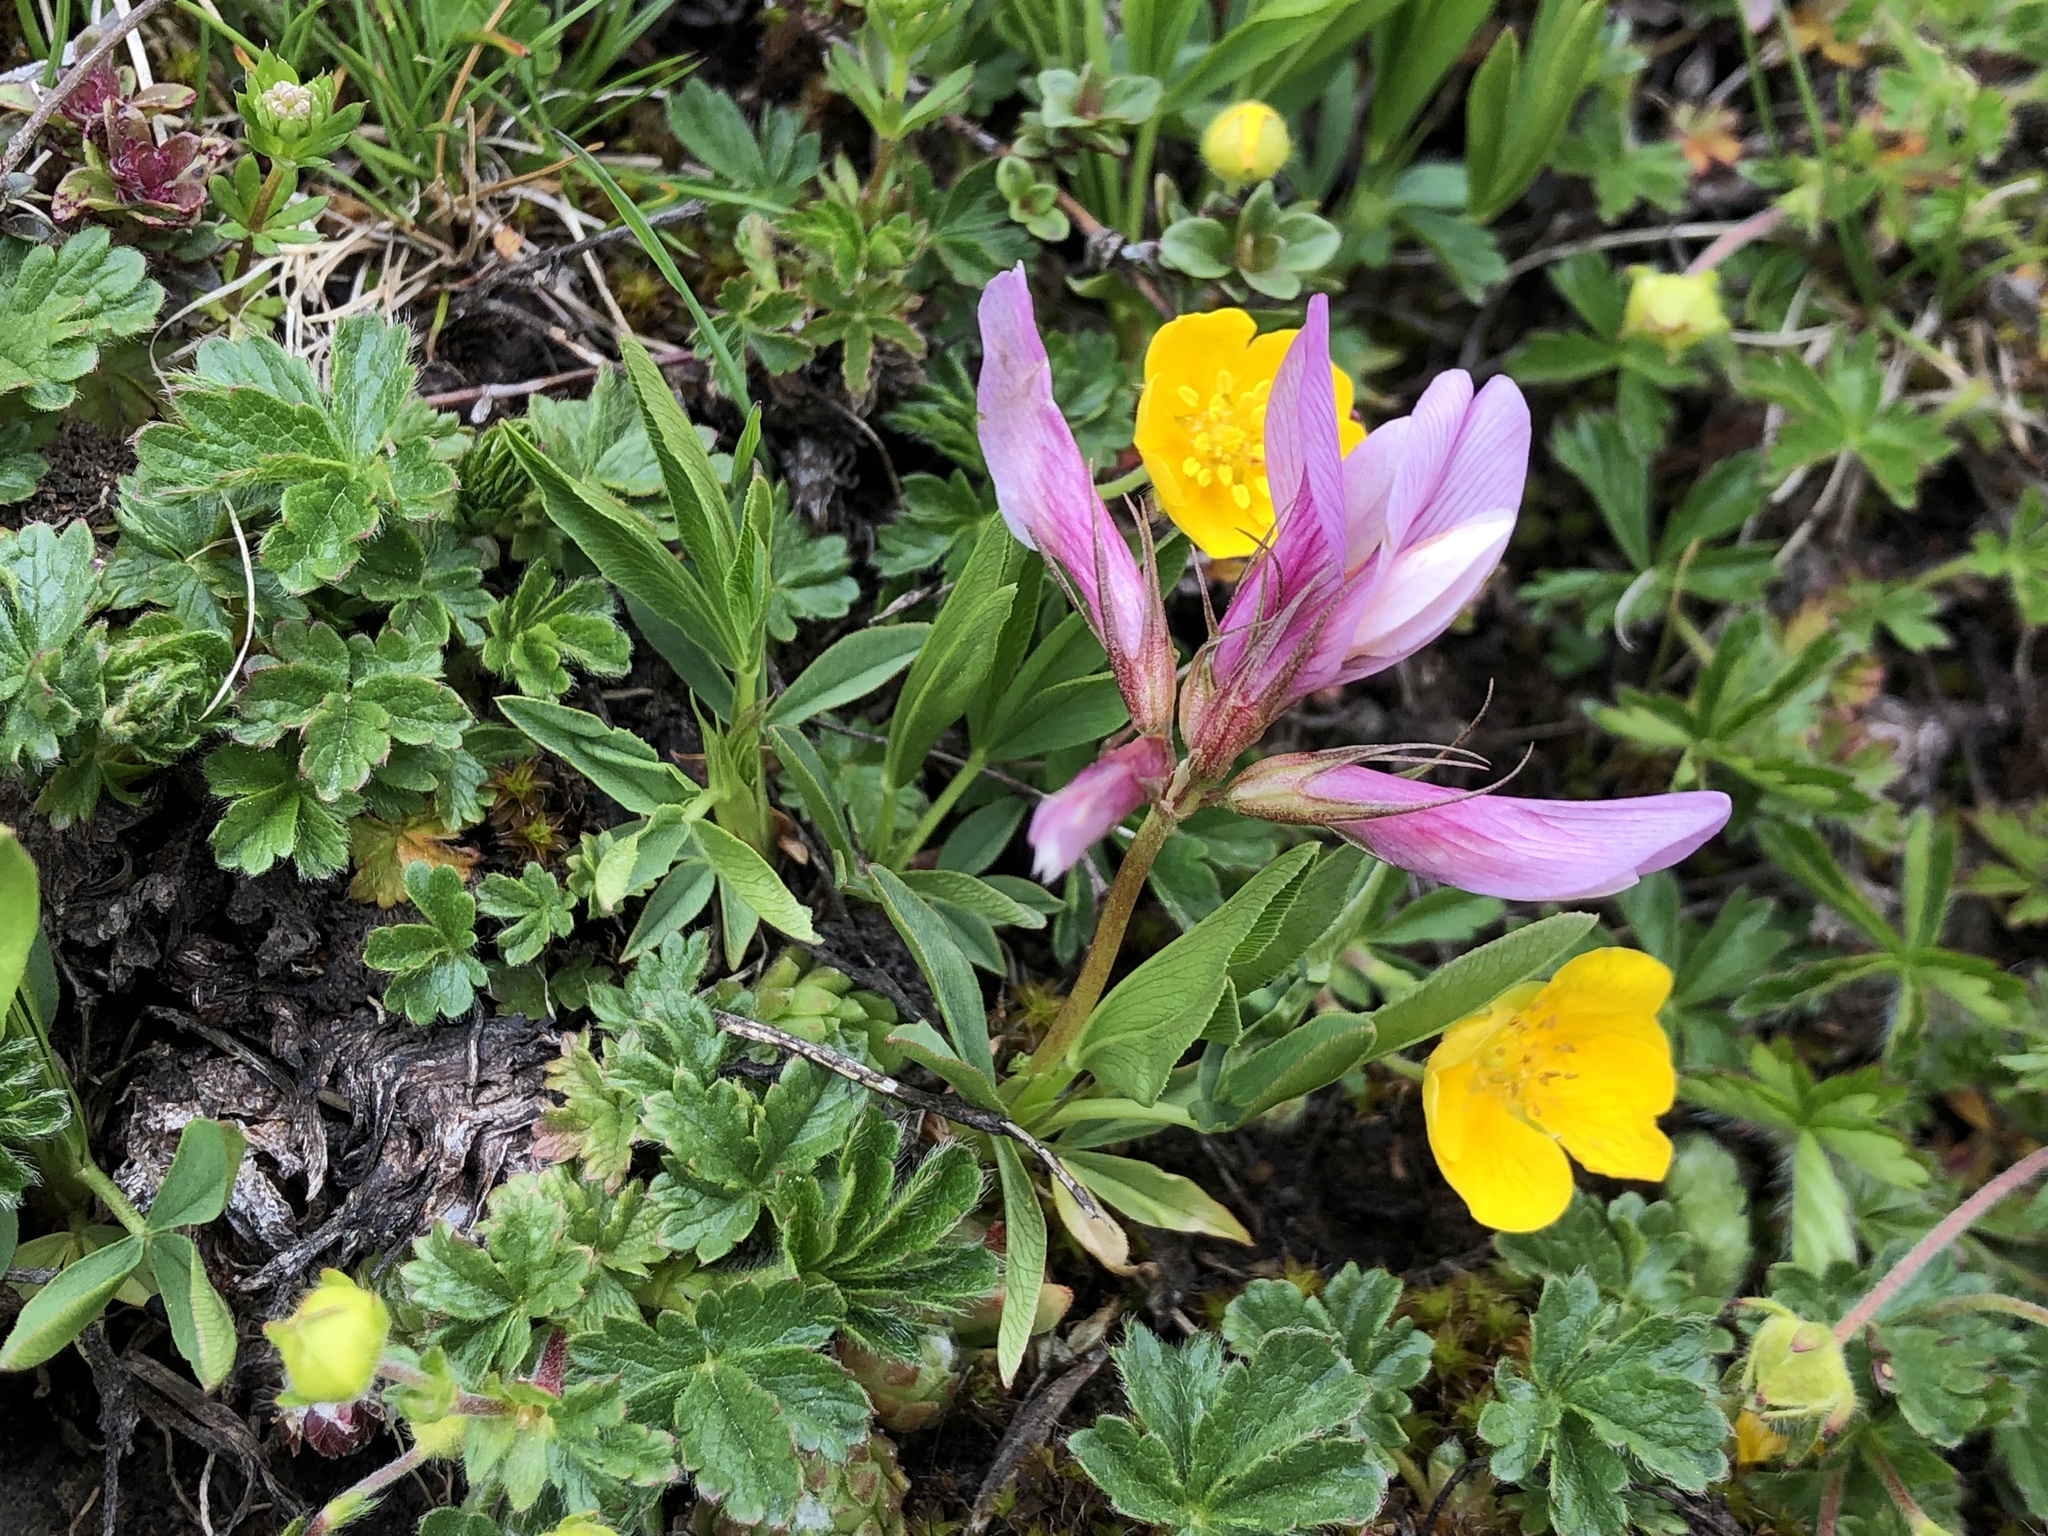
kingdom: Plantae
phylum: Tracheophyta
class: Magnoliopsida
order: Fabales
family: Fabaceae
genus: Trifolium
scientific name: Trifolium alpinum
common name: Alpine clover
